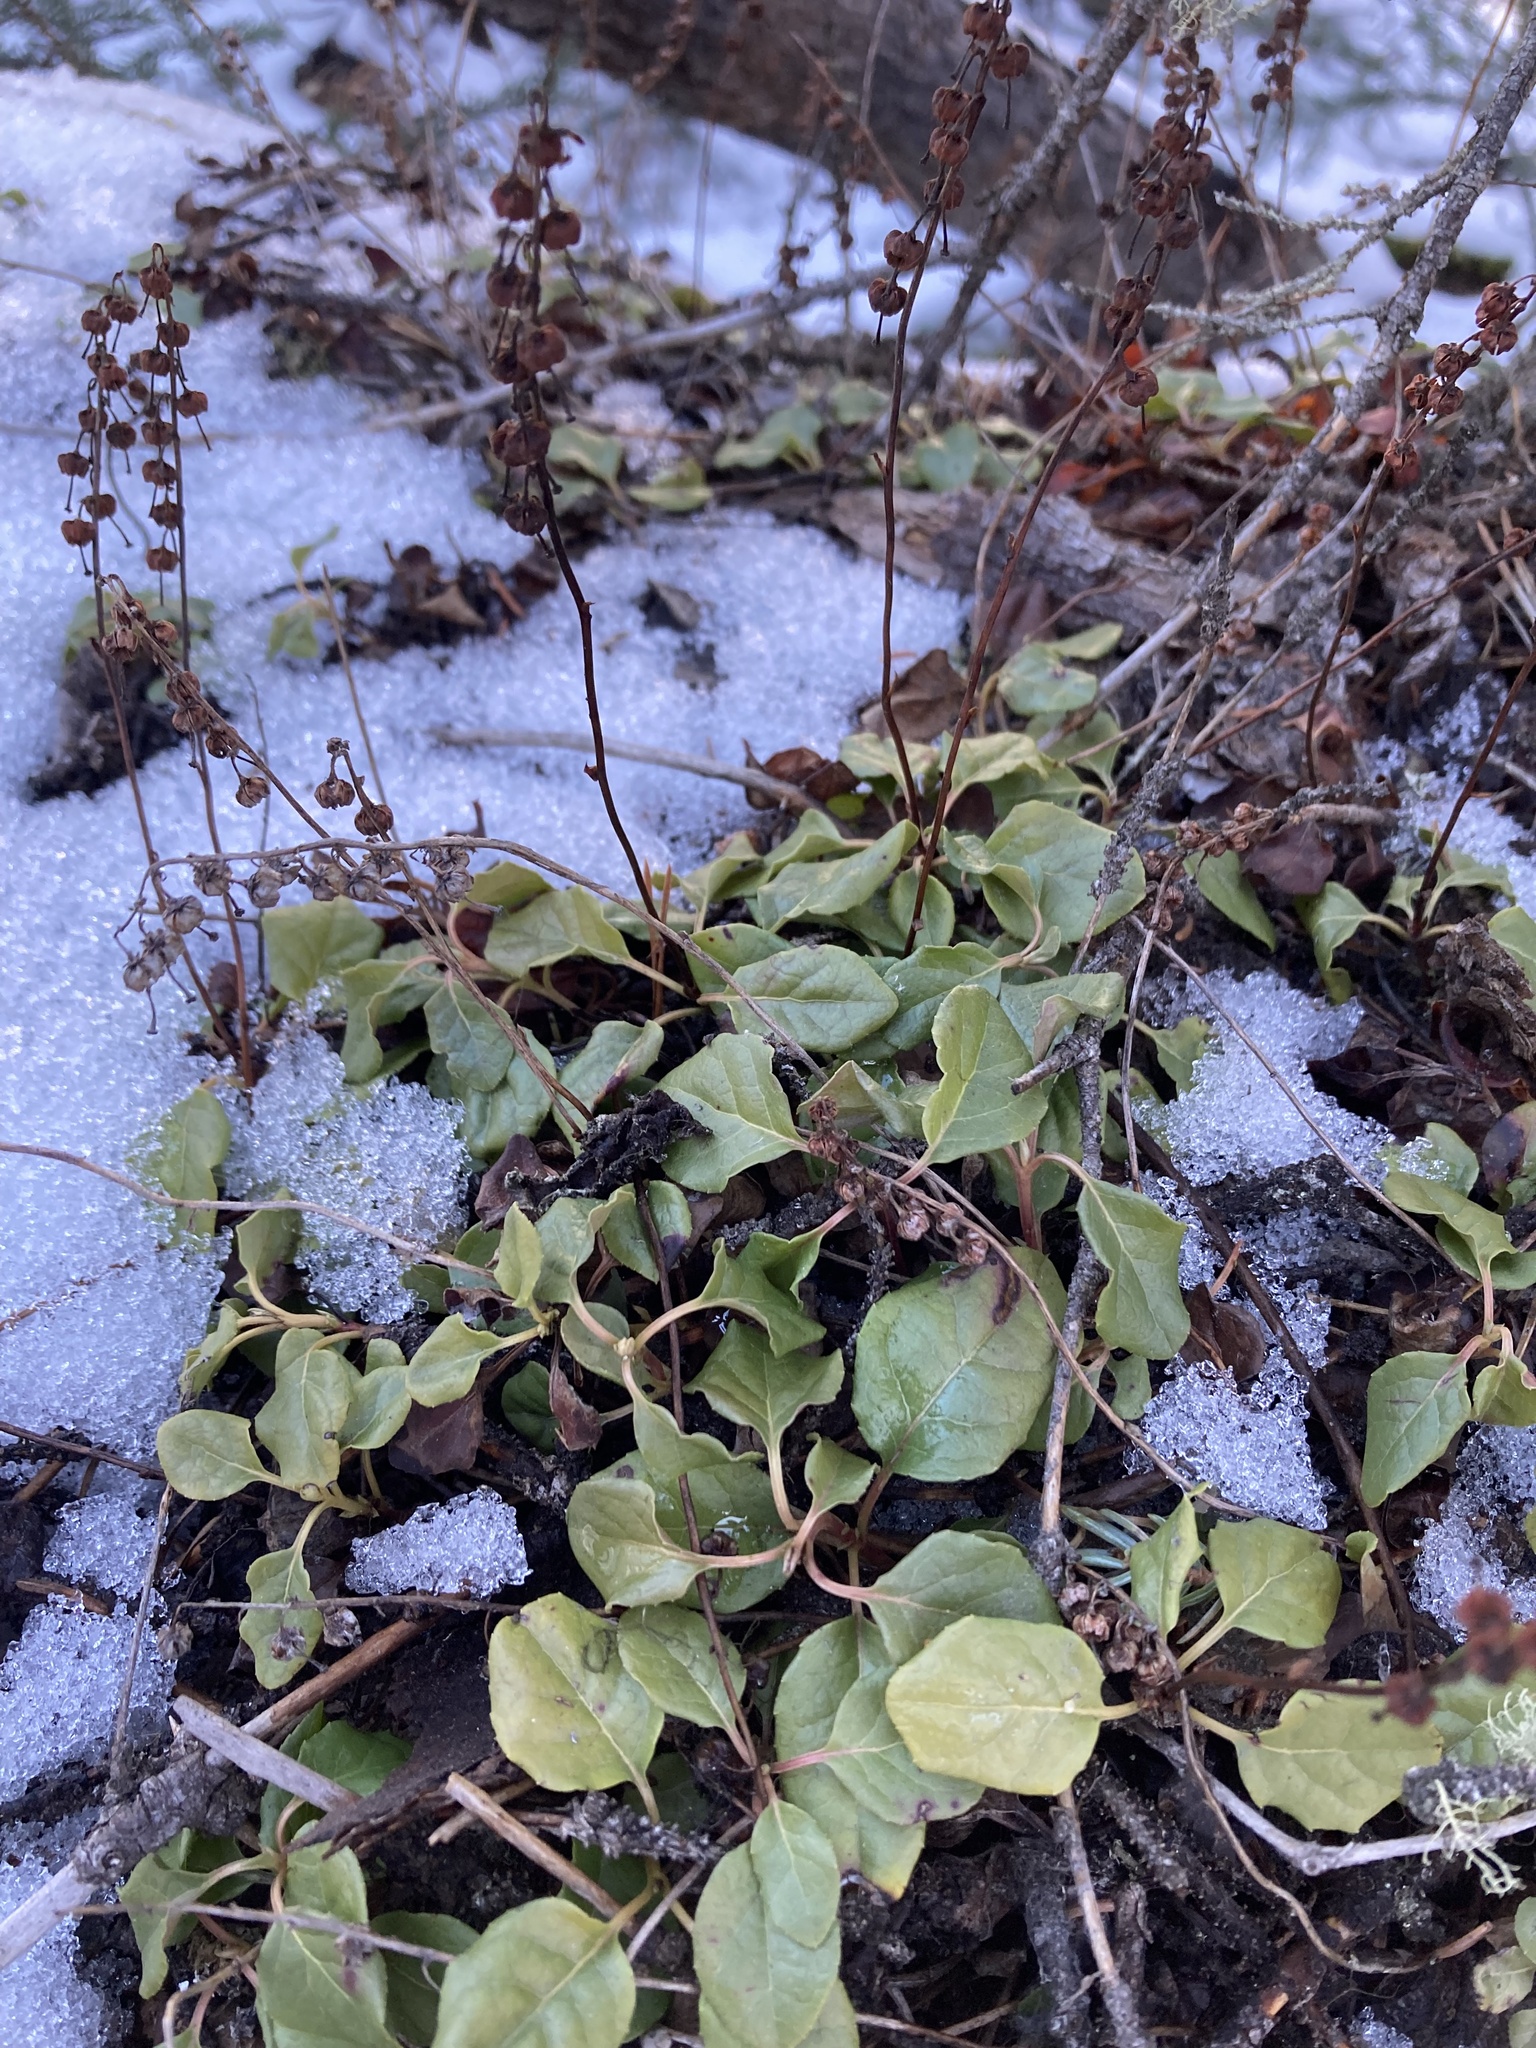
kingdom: Plantae
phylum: Tracheophyta
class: Magnoliopsida
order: Ericales
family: Ericaceae
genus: Orthilia
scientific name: Orthilia secunda
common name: One-sided orthilia
